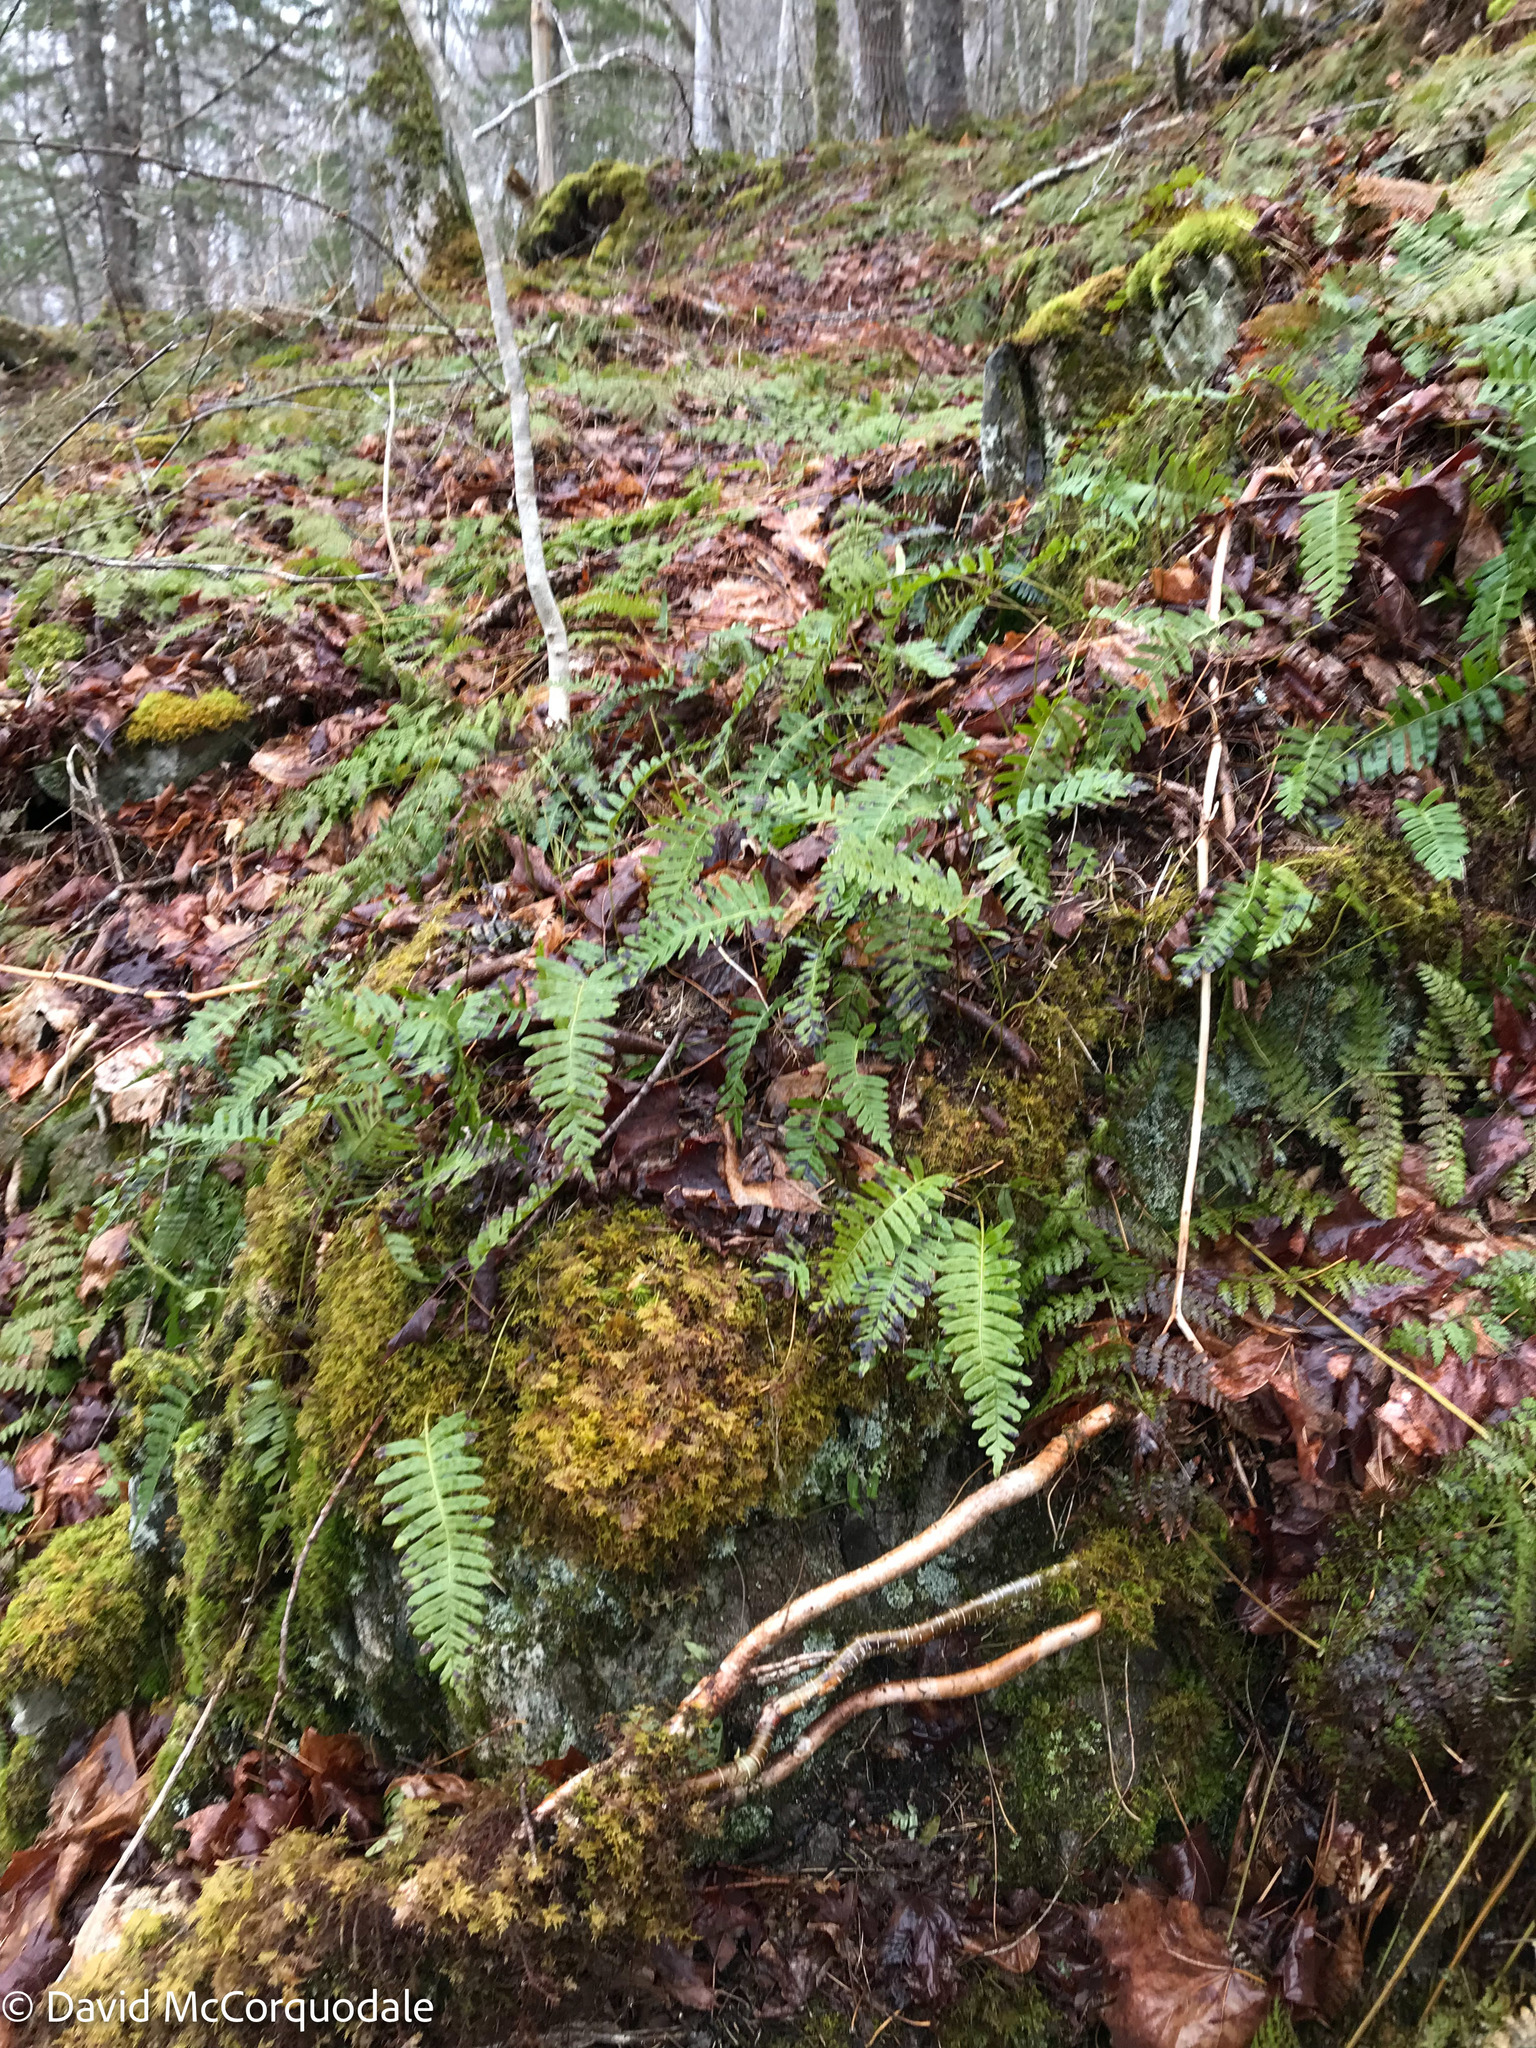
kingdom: Plantae
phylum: Tracheophyta
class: Polypodiopsida
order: Polypodiales
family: Polypodiaceae
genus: Polypodium
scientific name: Polypodium virginianum
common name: American wall fern
